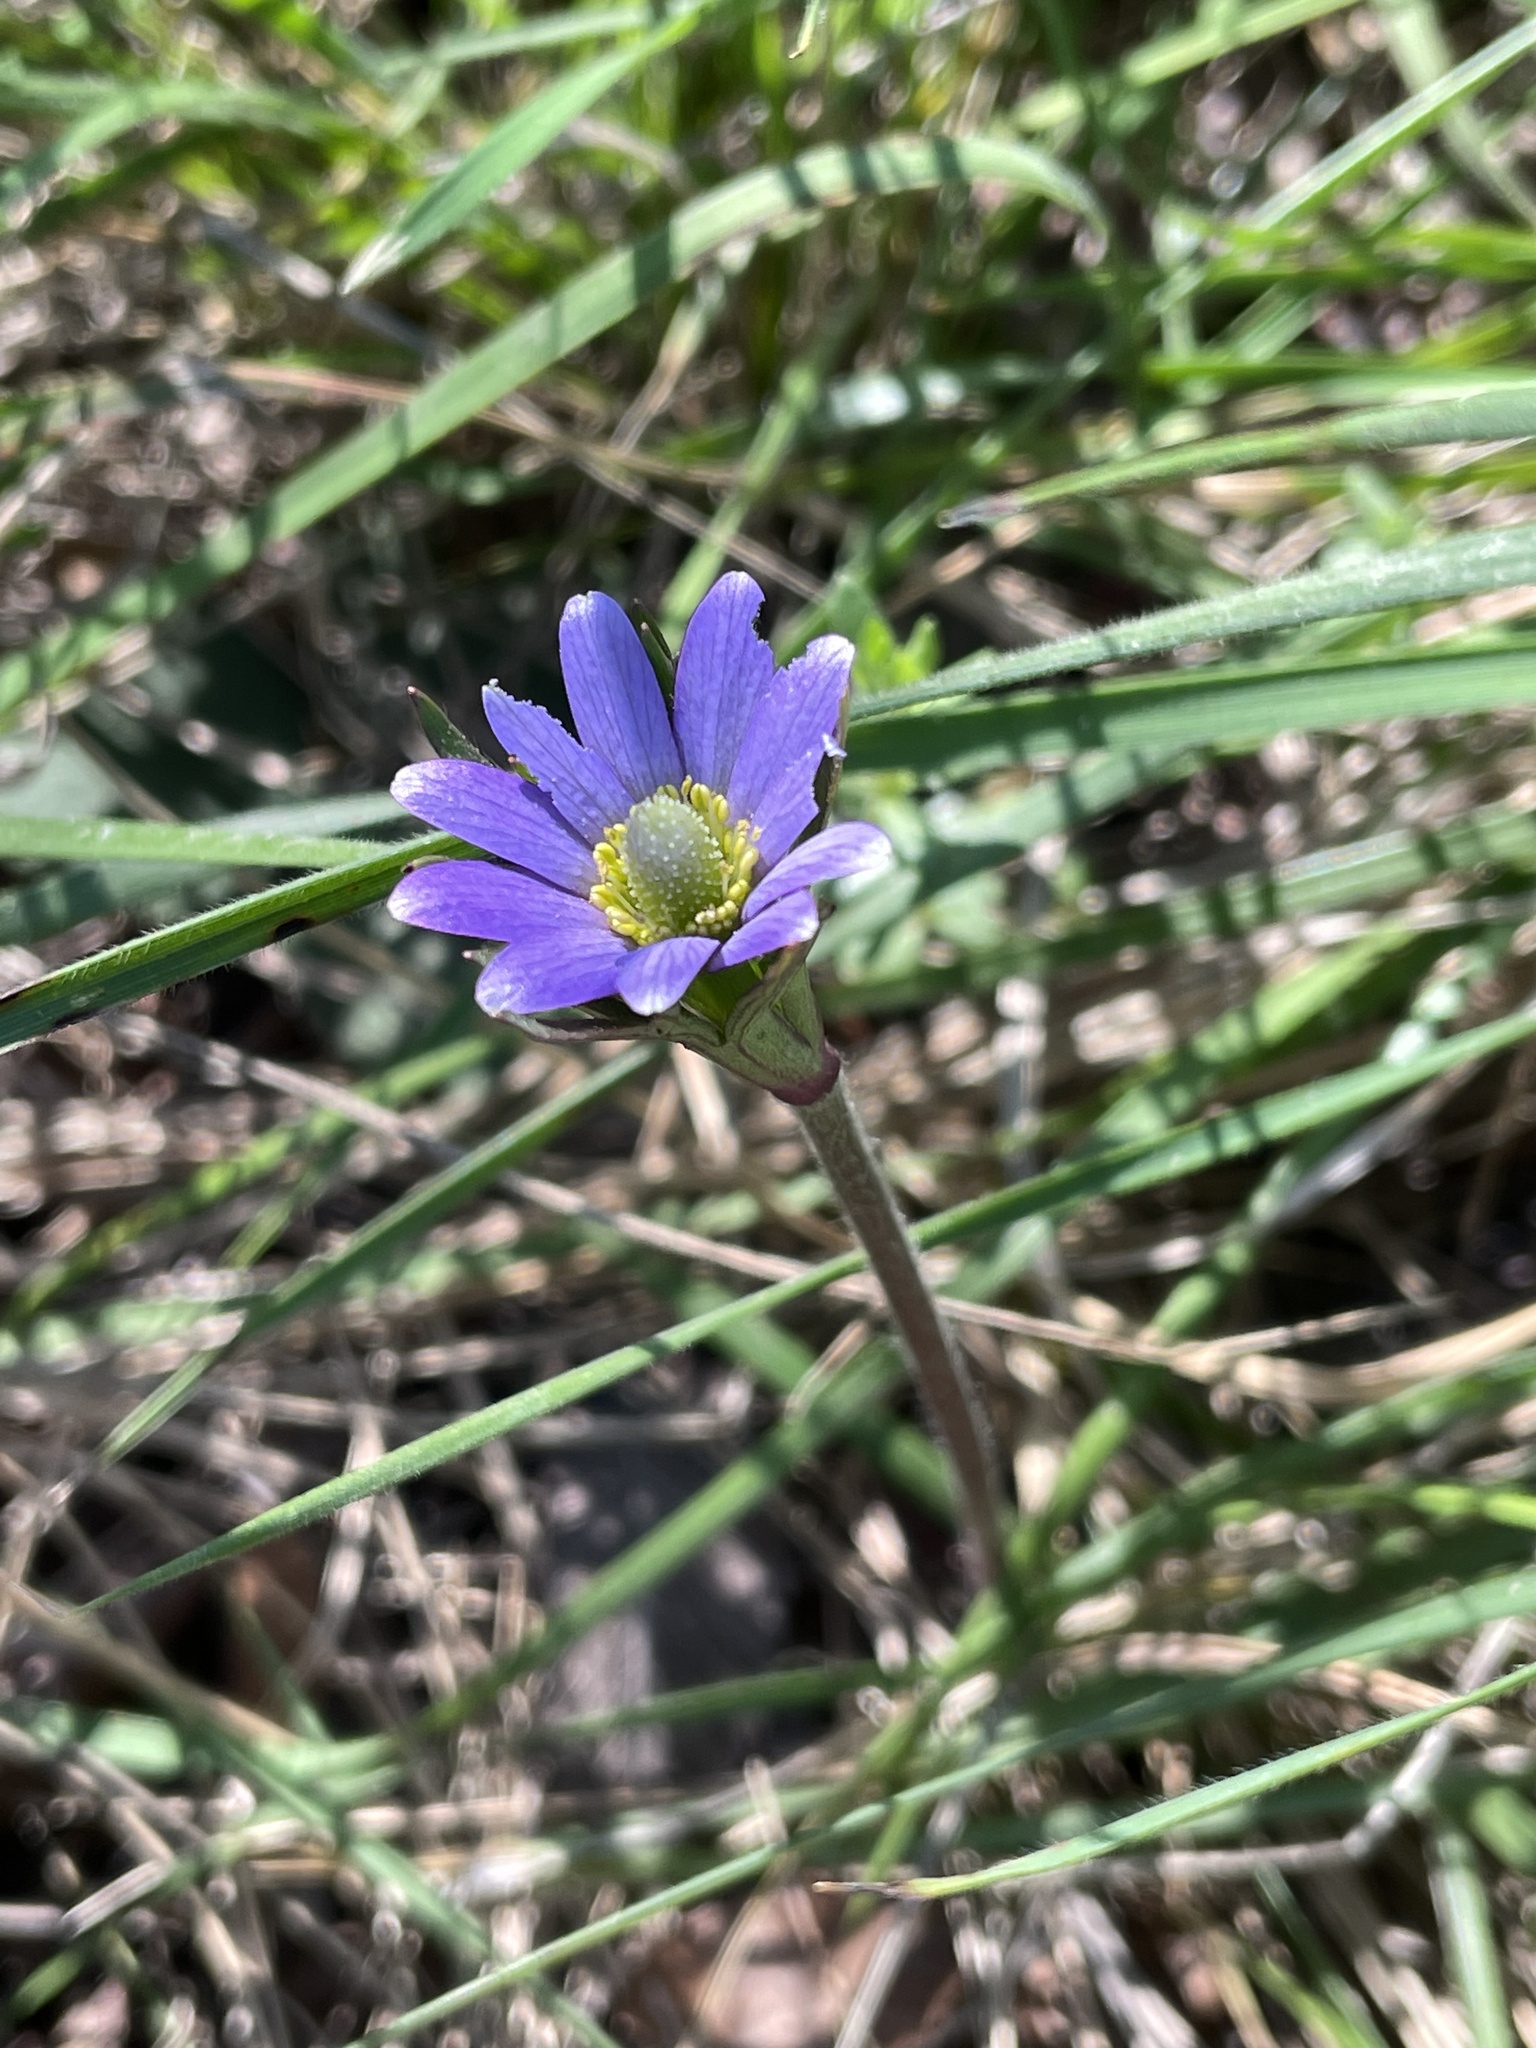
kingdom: Plantae
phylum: Tracheophyta
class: Magnoliopsida
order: Ranunculales
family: Ranunculaceae
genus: Anemone
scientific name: Anemone berlandieri
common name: Ten-petal anemone
